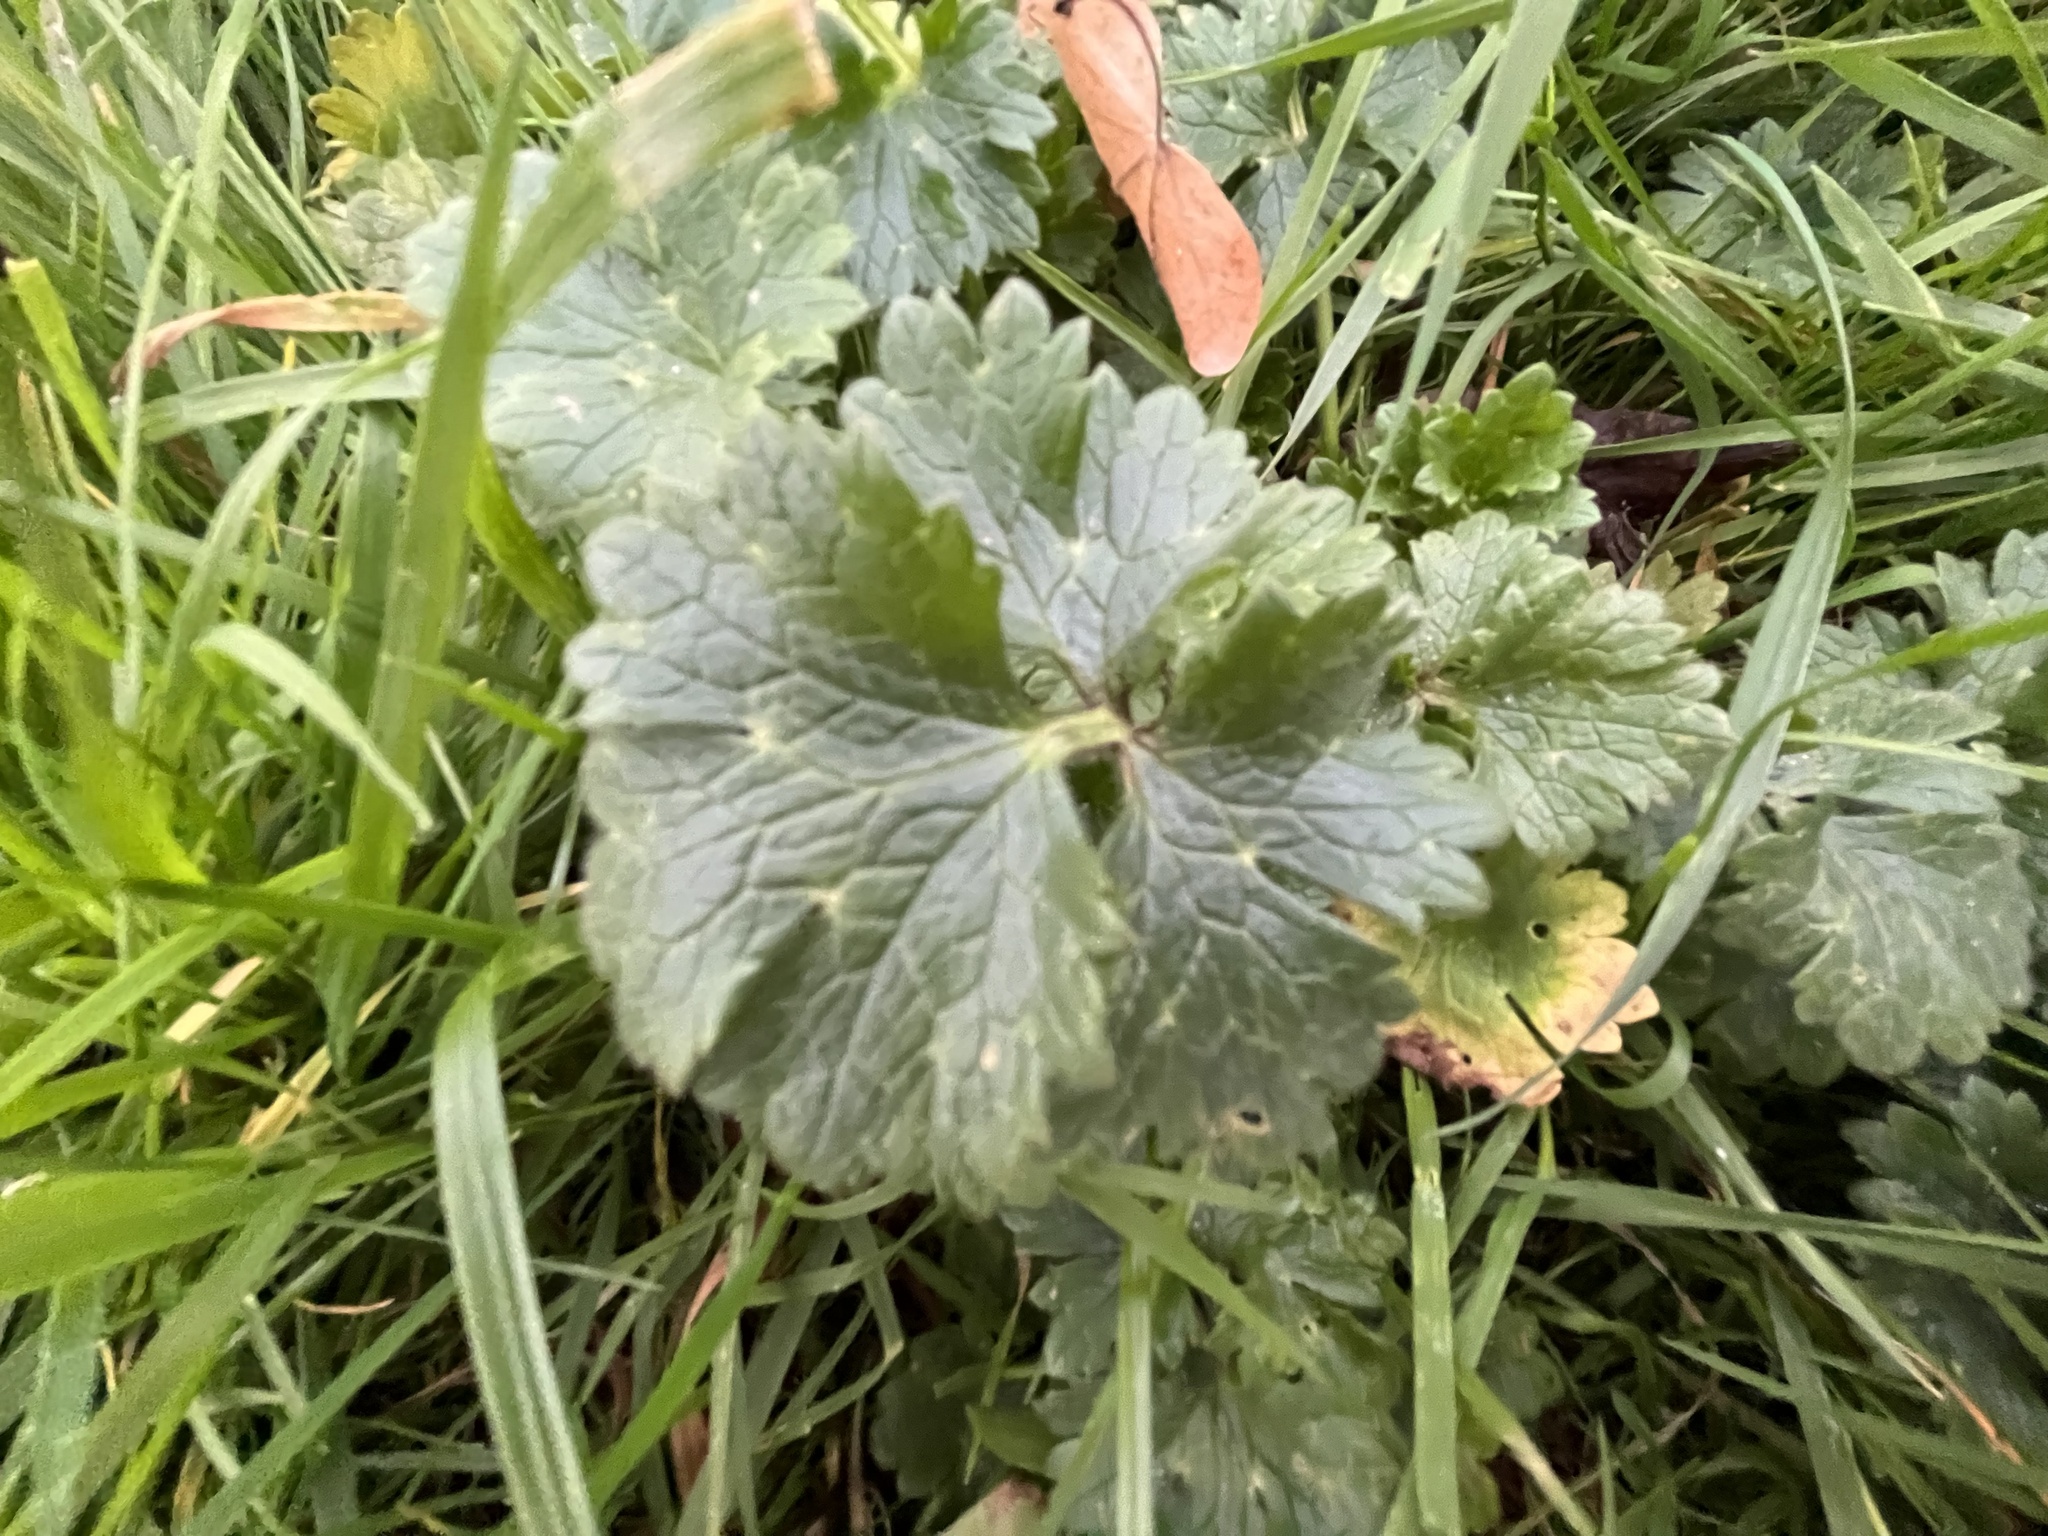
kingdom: Plantae
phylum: Tracheophyta
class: Magnoliopsida
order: Ranunculales
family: Ranunculaceae
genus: Ranunculus
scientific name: Ranunculus bulbosus
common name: Bulbous buttercup
